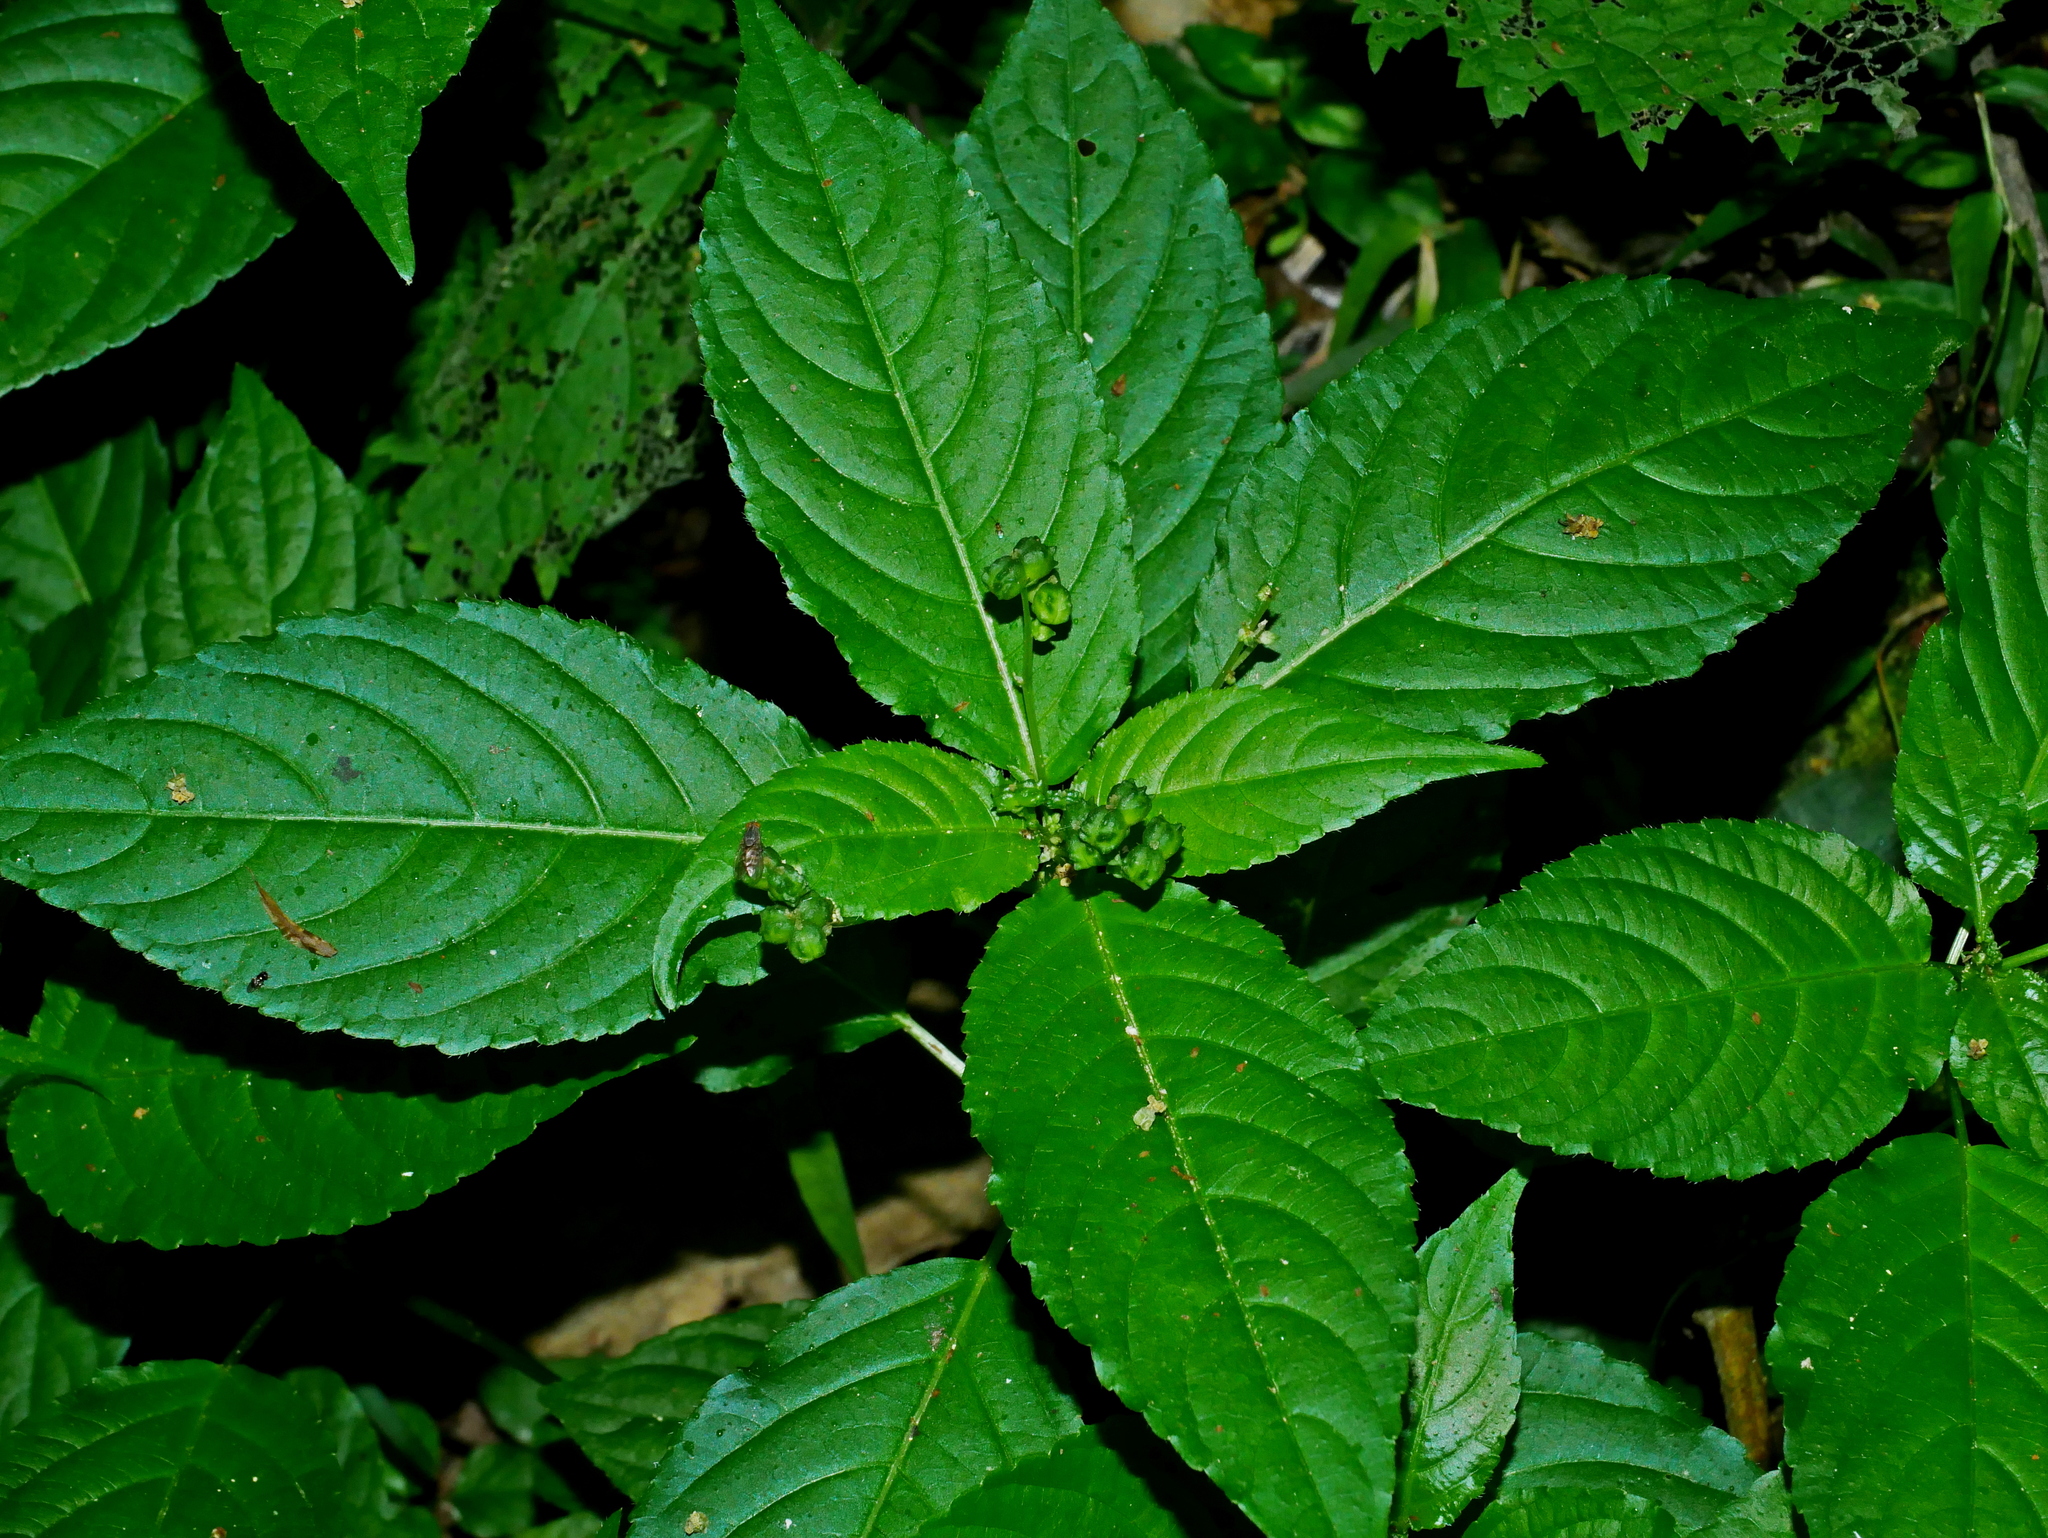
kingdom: Plantae
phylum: Tracheophyta
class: Magnoliopsida
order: Malpighiales
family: Euphorbiaceae
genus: Mercurialis
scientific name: Mercurialis leiocarpa
